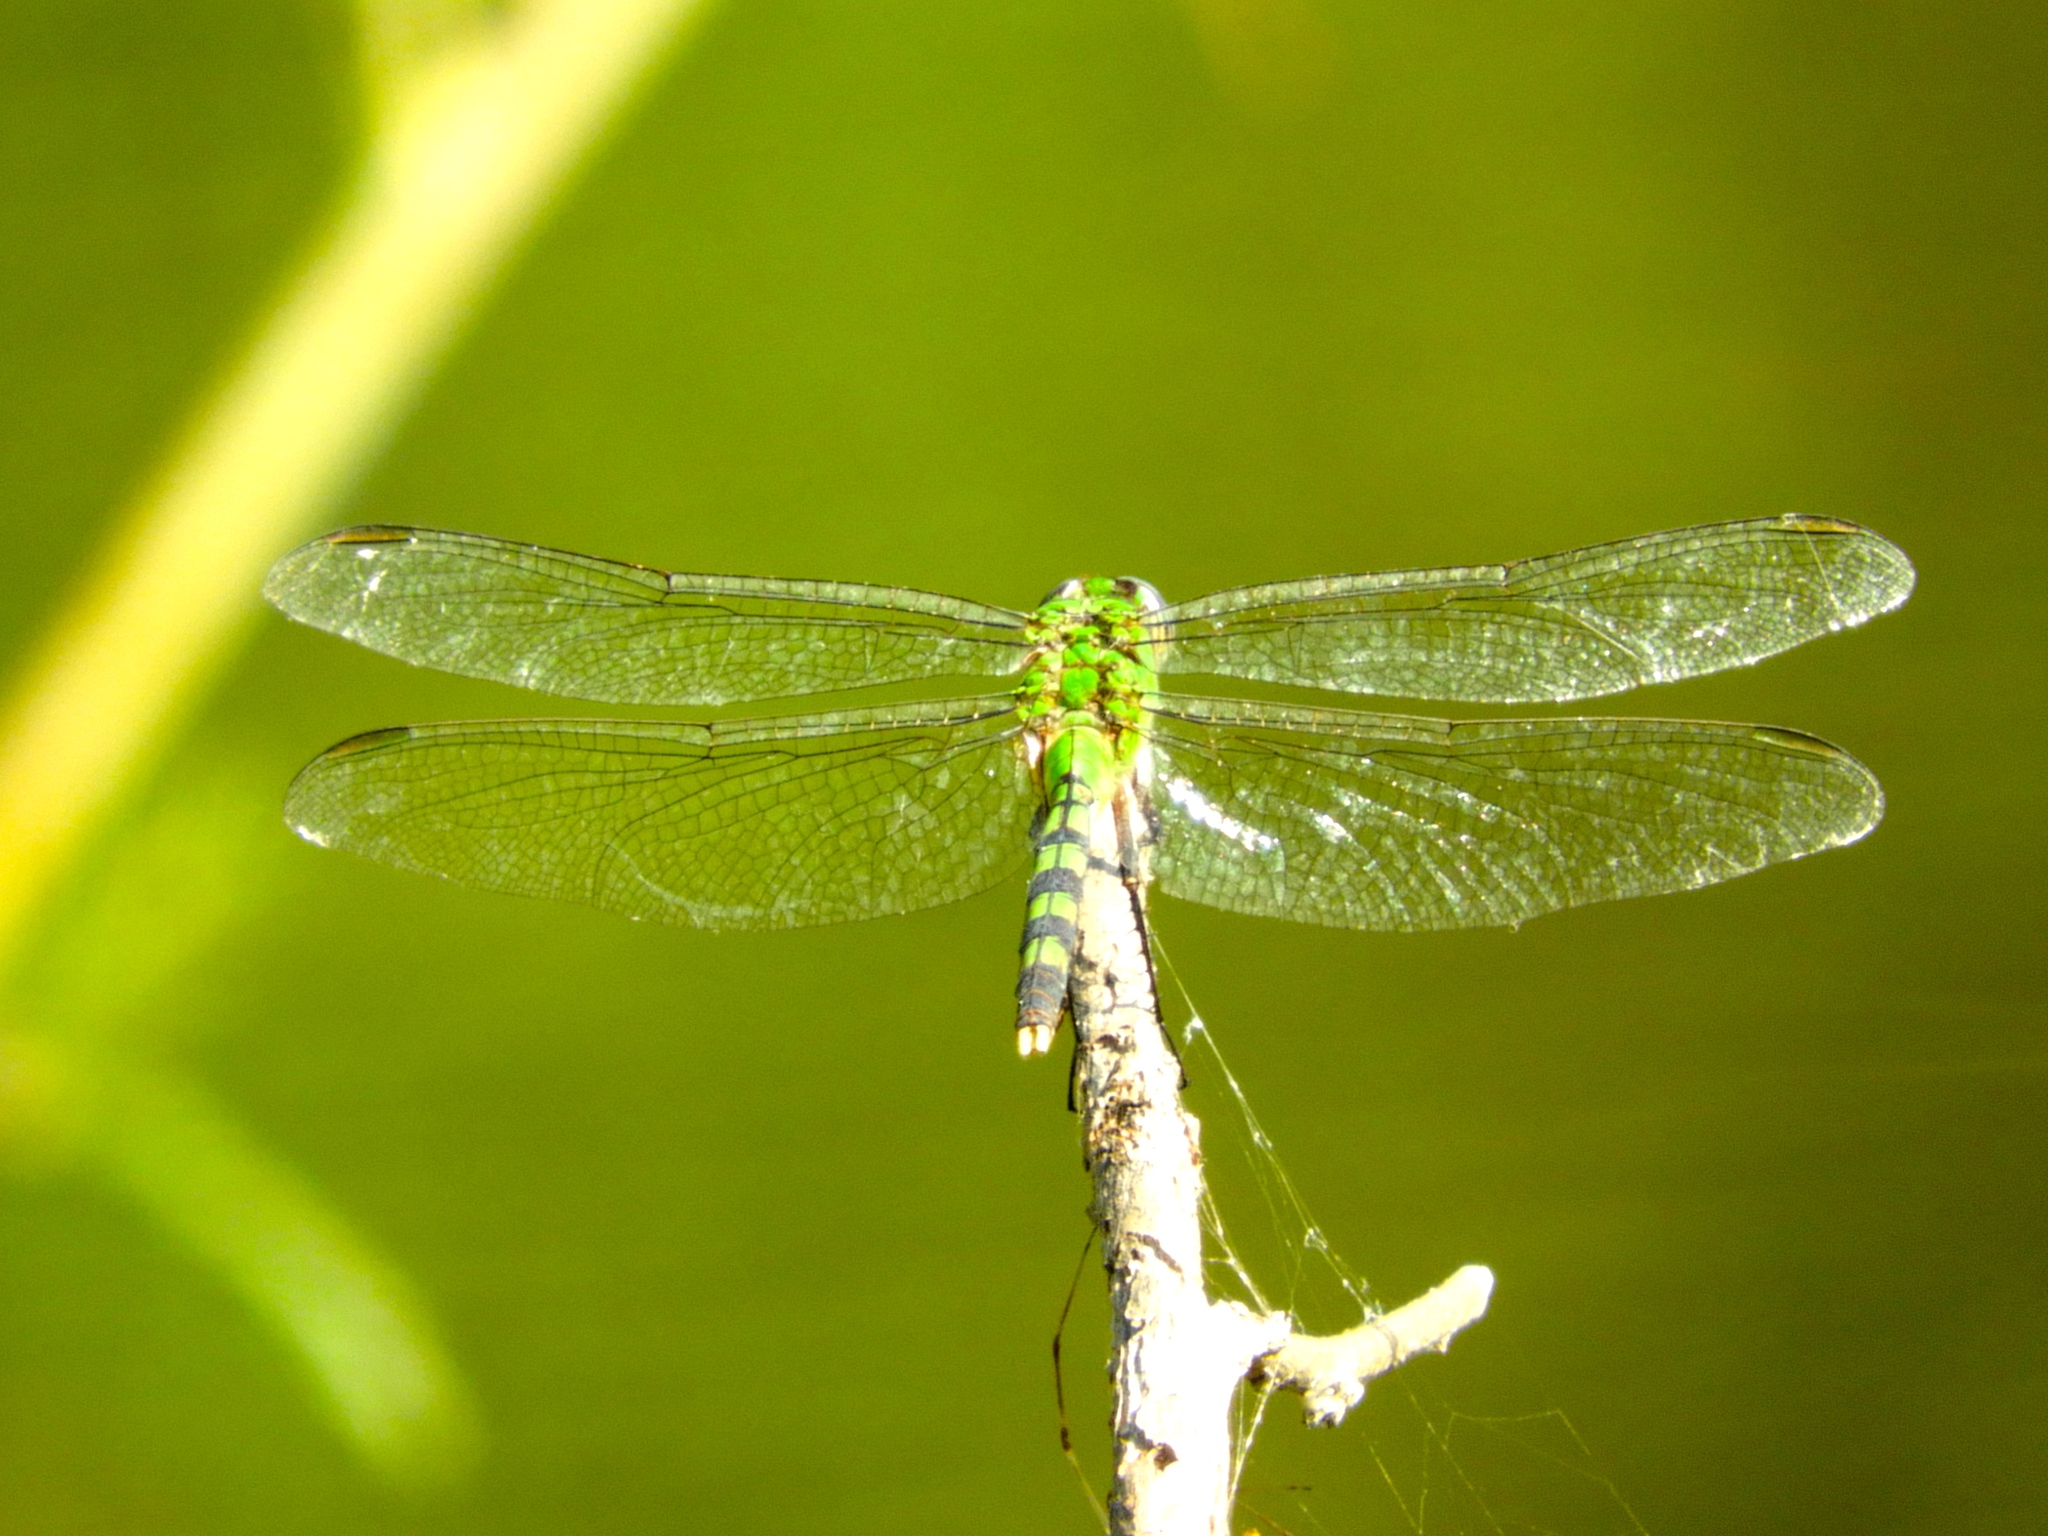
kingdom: Animalia
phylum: Arthropoda
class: Insecta
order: Odonata
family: Libellulidae
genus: Erythemis
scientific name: Erythemis vesiculosa
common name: Great pondhawk
